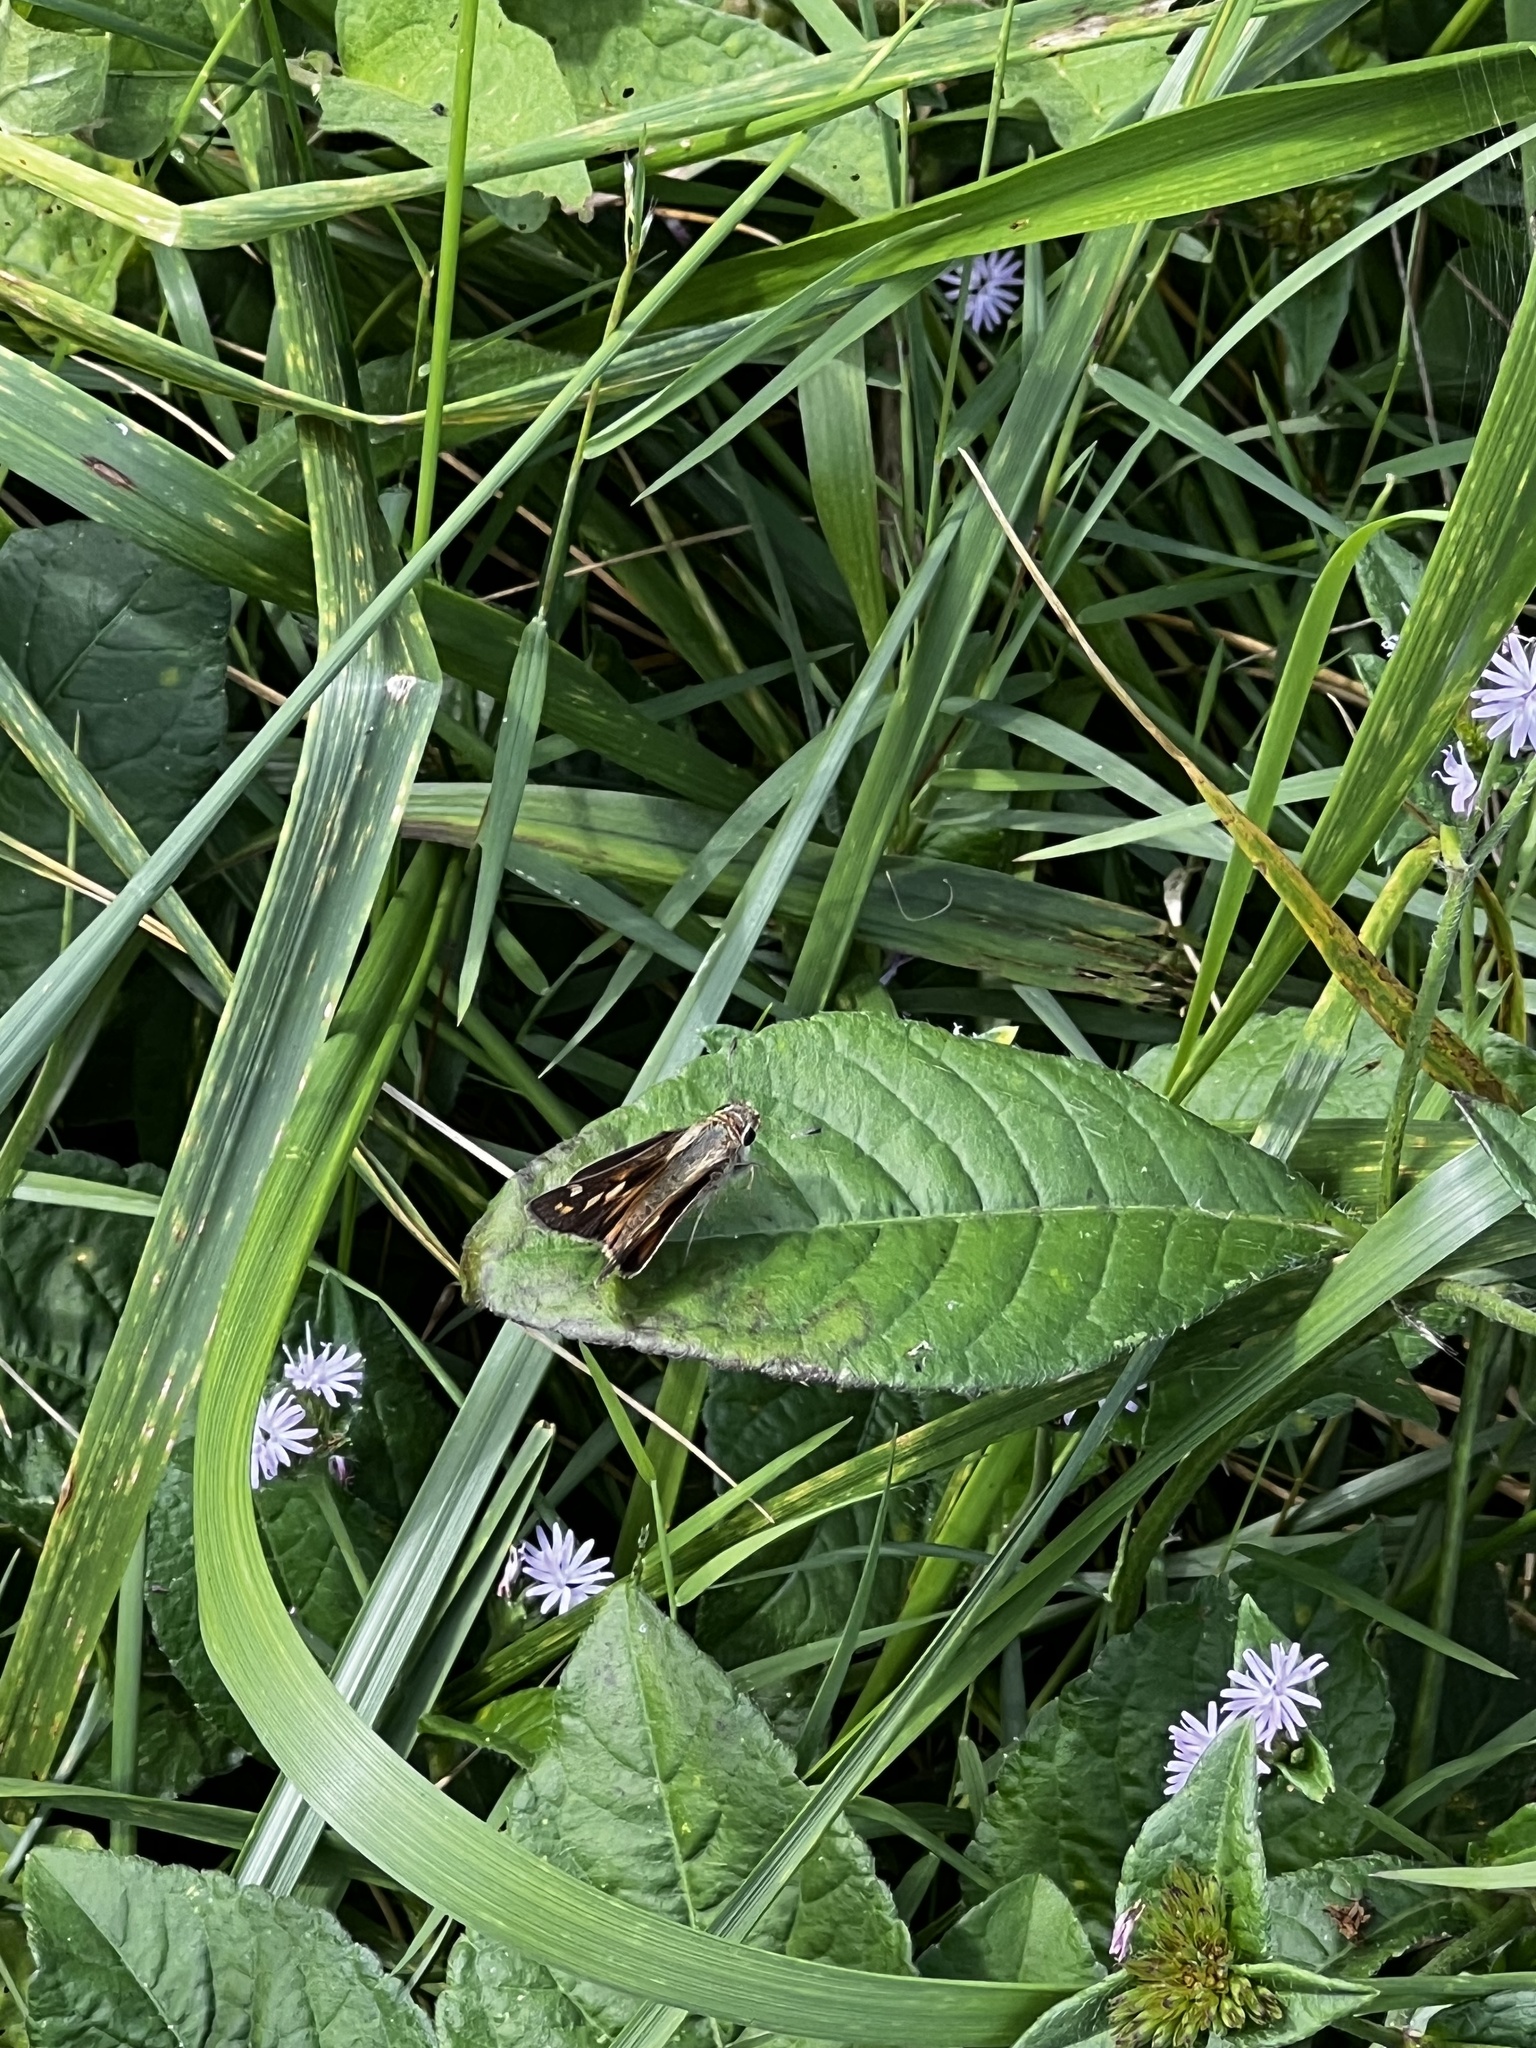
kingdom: Animalia
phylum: Arthropoda
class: Insecta
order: Lepidoptera
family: Hesperiidae
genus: Atalopedes
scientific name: Atalopedes
